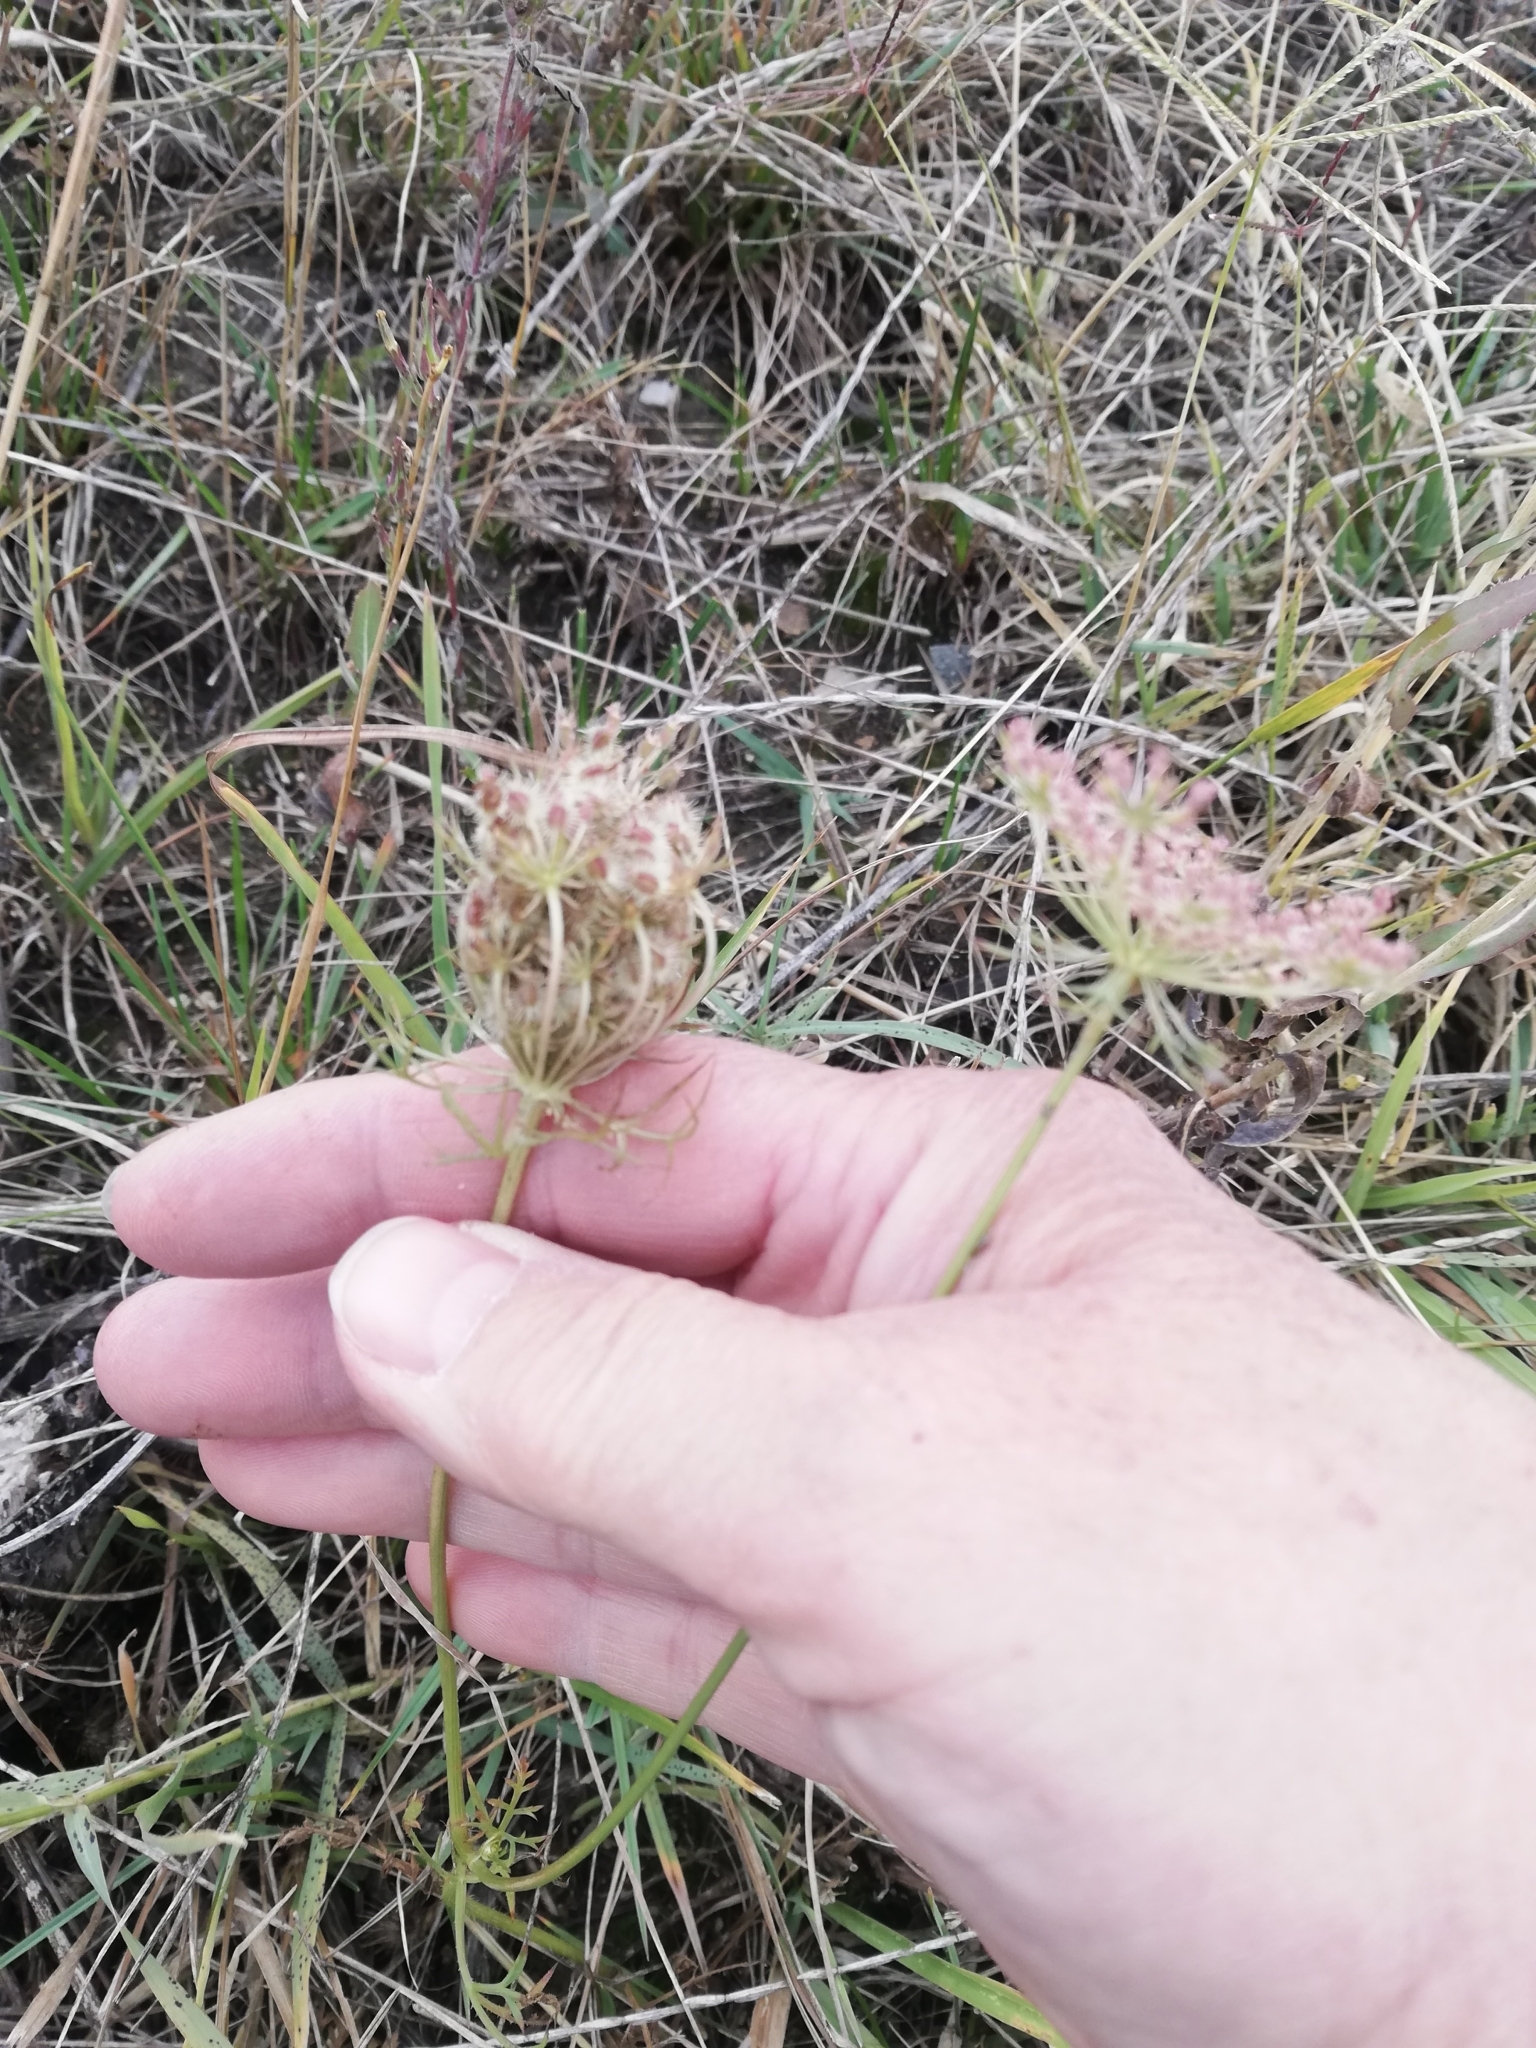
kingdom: Plantae
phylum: Tracheophyta
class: Magnoliopsida
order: Apiales
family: Apiaceae
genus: Daucus
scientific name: Daucus carota
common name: Wild carrot
